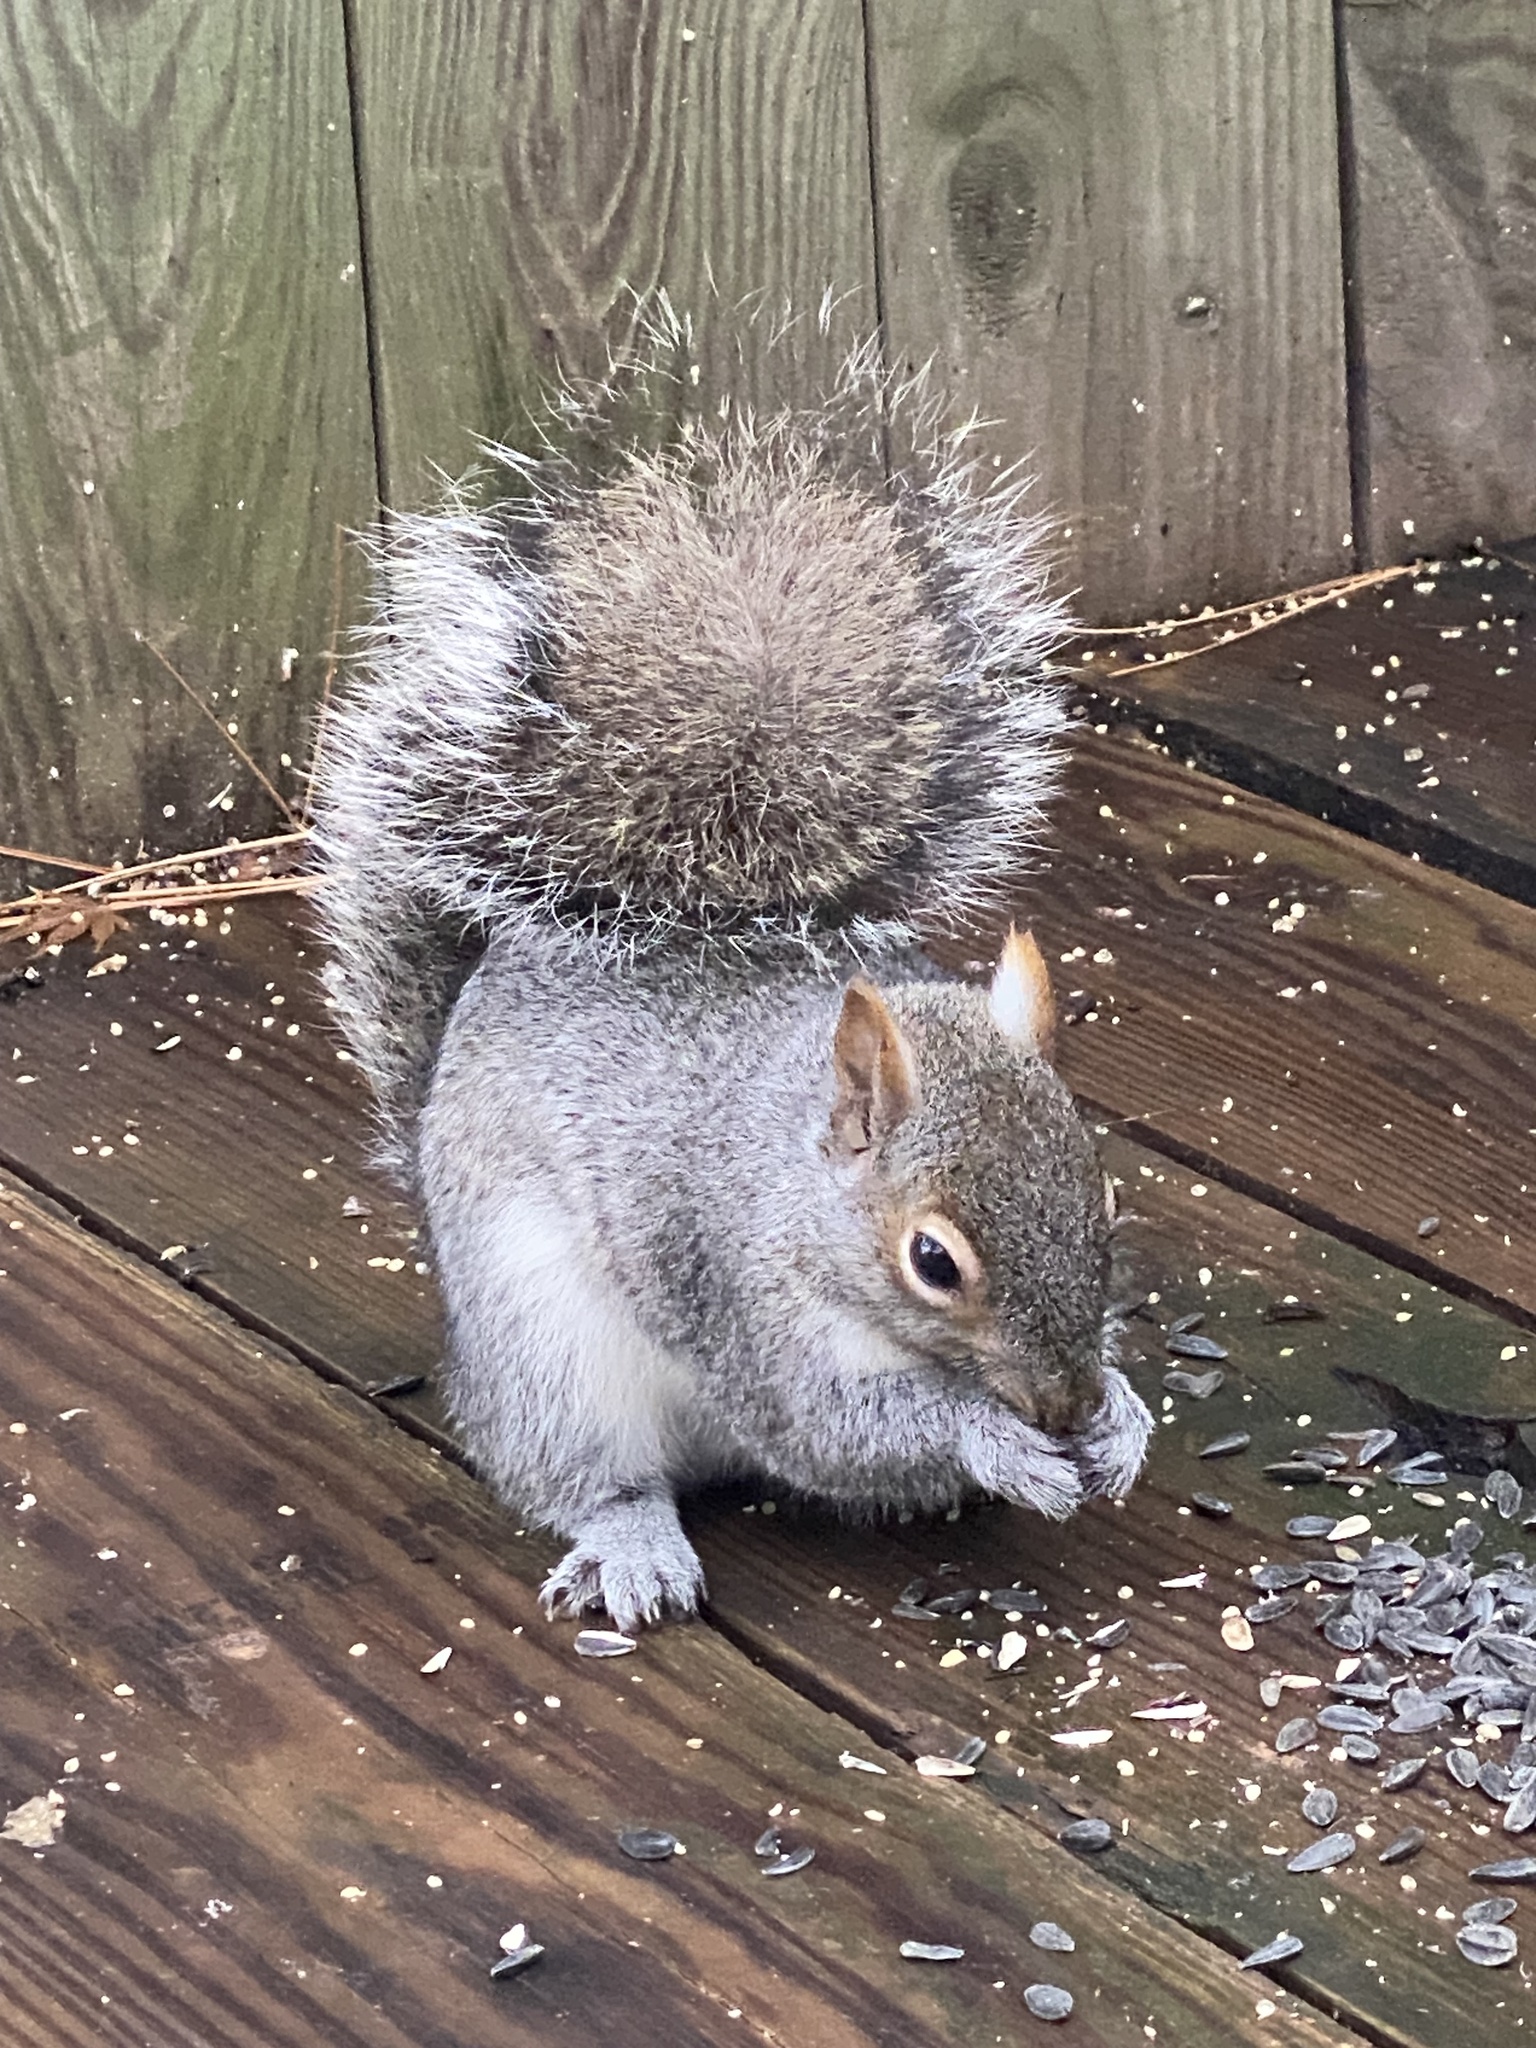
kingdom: Animalia
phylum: Chordata
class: Mammalia
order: Rodentia
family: Sciuridae
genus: Sciurus
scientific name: Sciurus carolinensis
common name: Eastern gray squirrel
